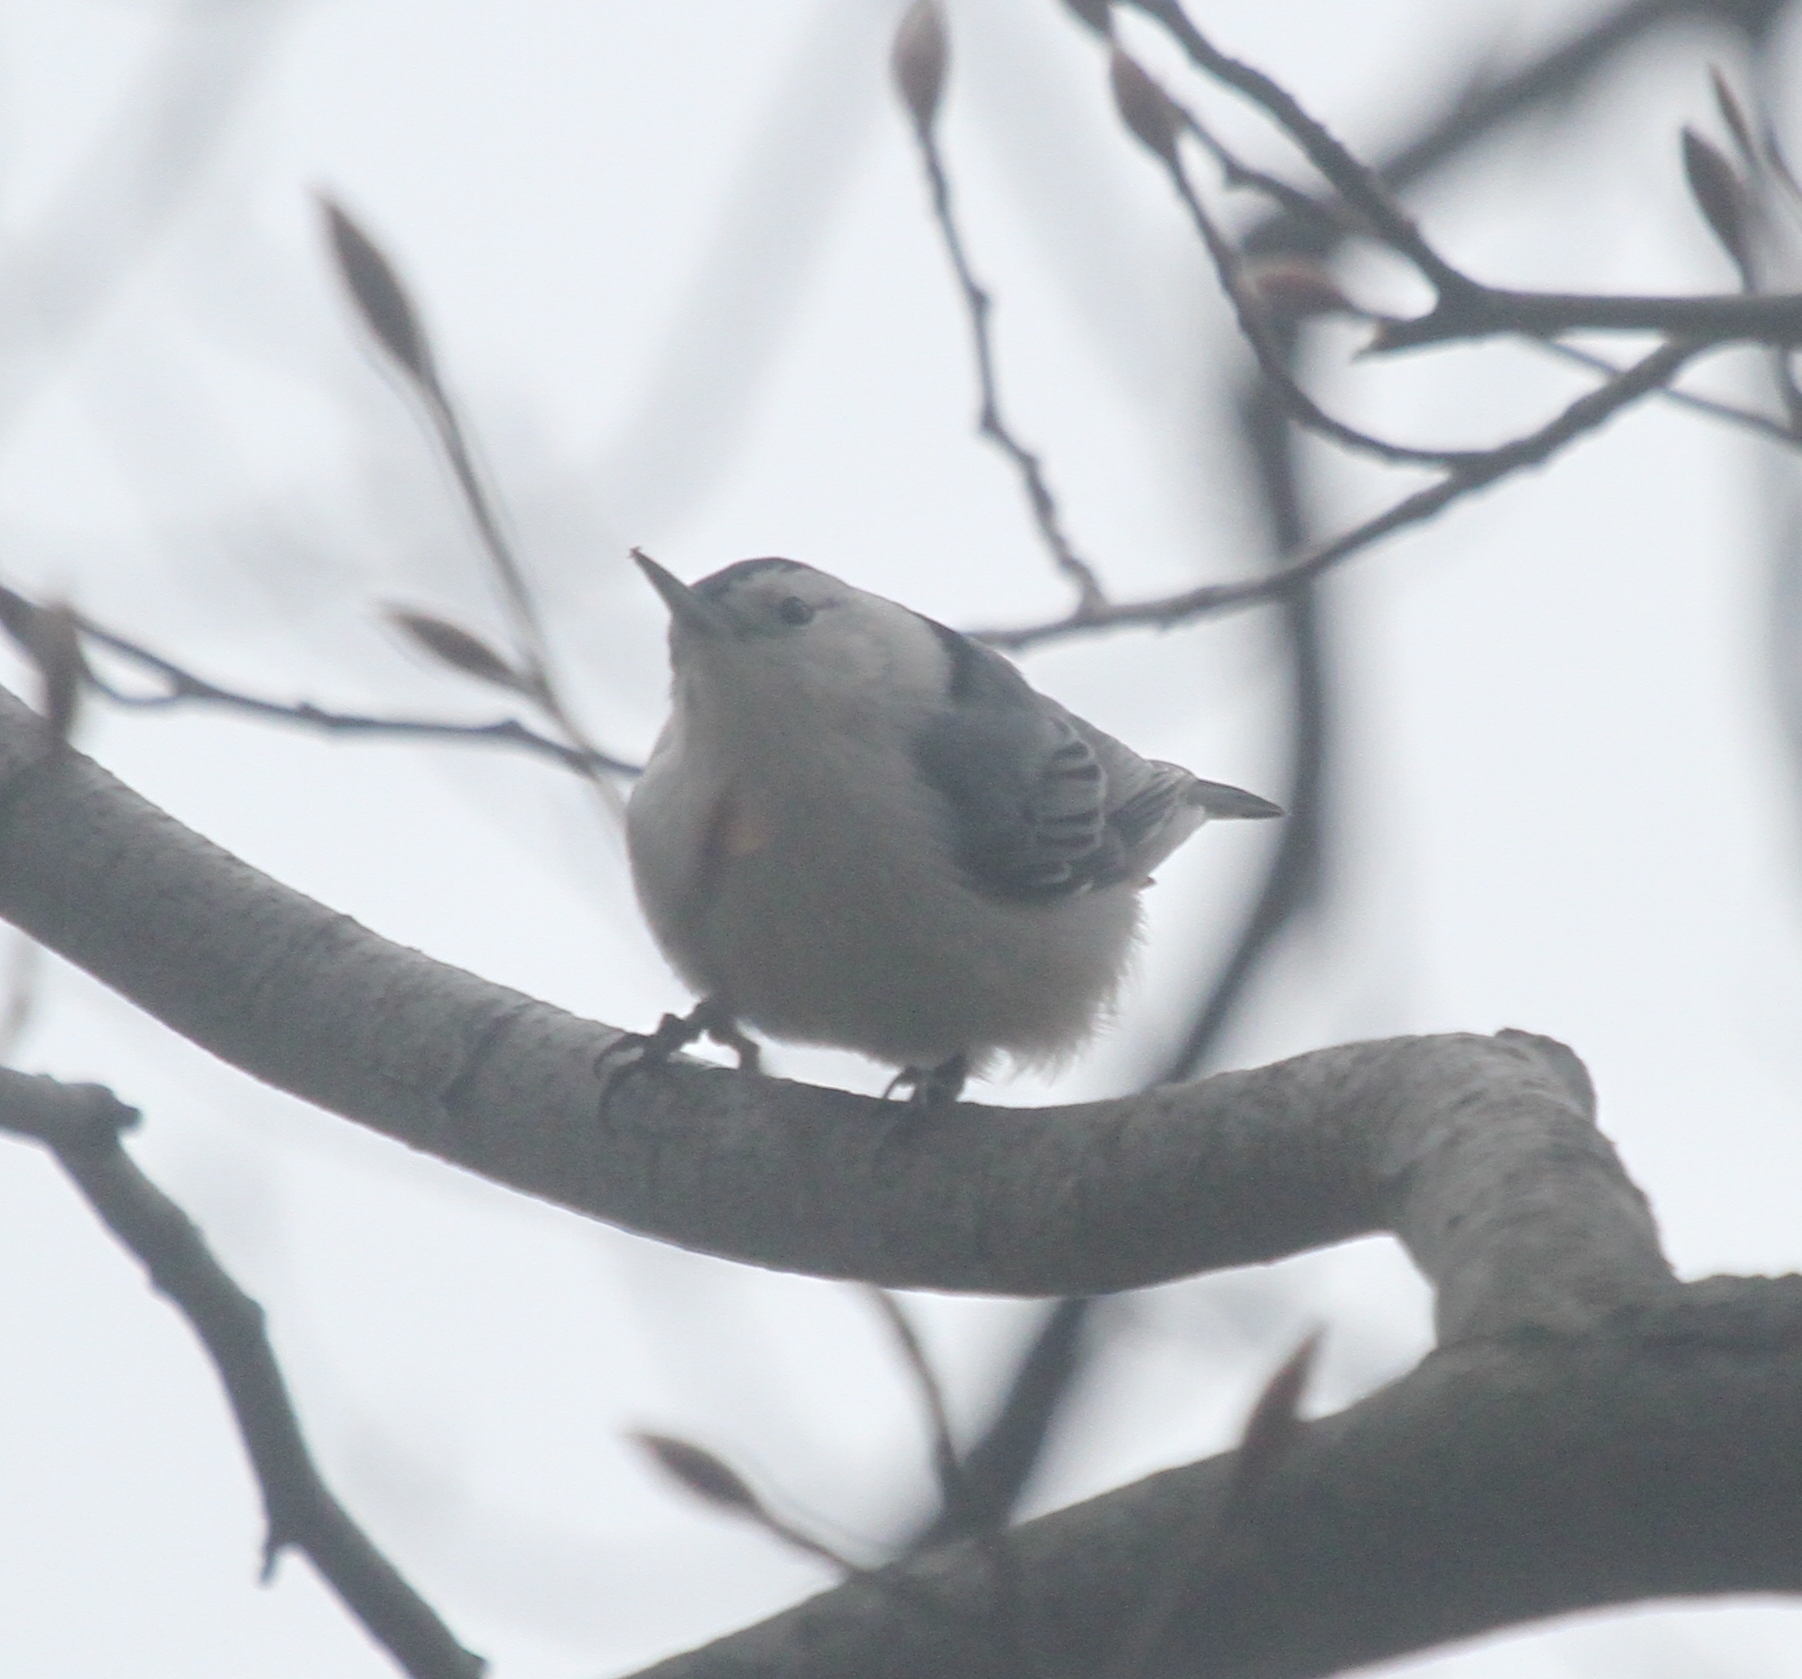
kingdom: Animalia
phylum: Chordata
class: Aves
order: Passeriformes
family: Sittidae
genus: Sitta
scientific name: Sitta carolinensis
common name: White-breasted nuthatch
